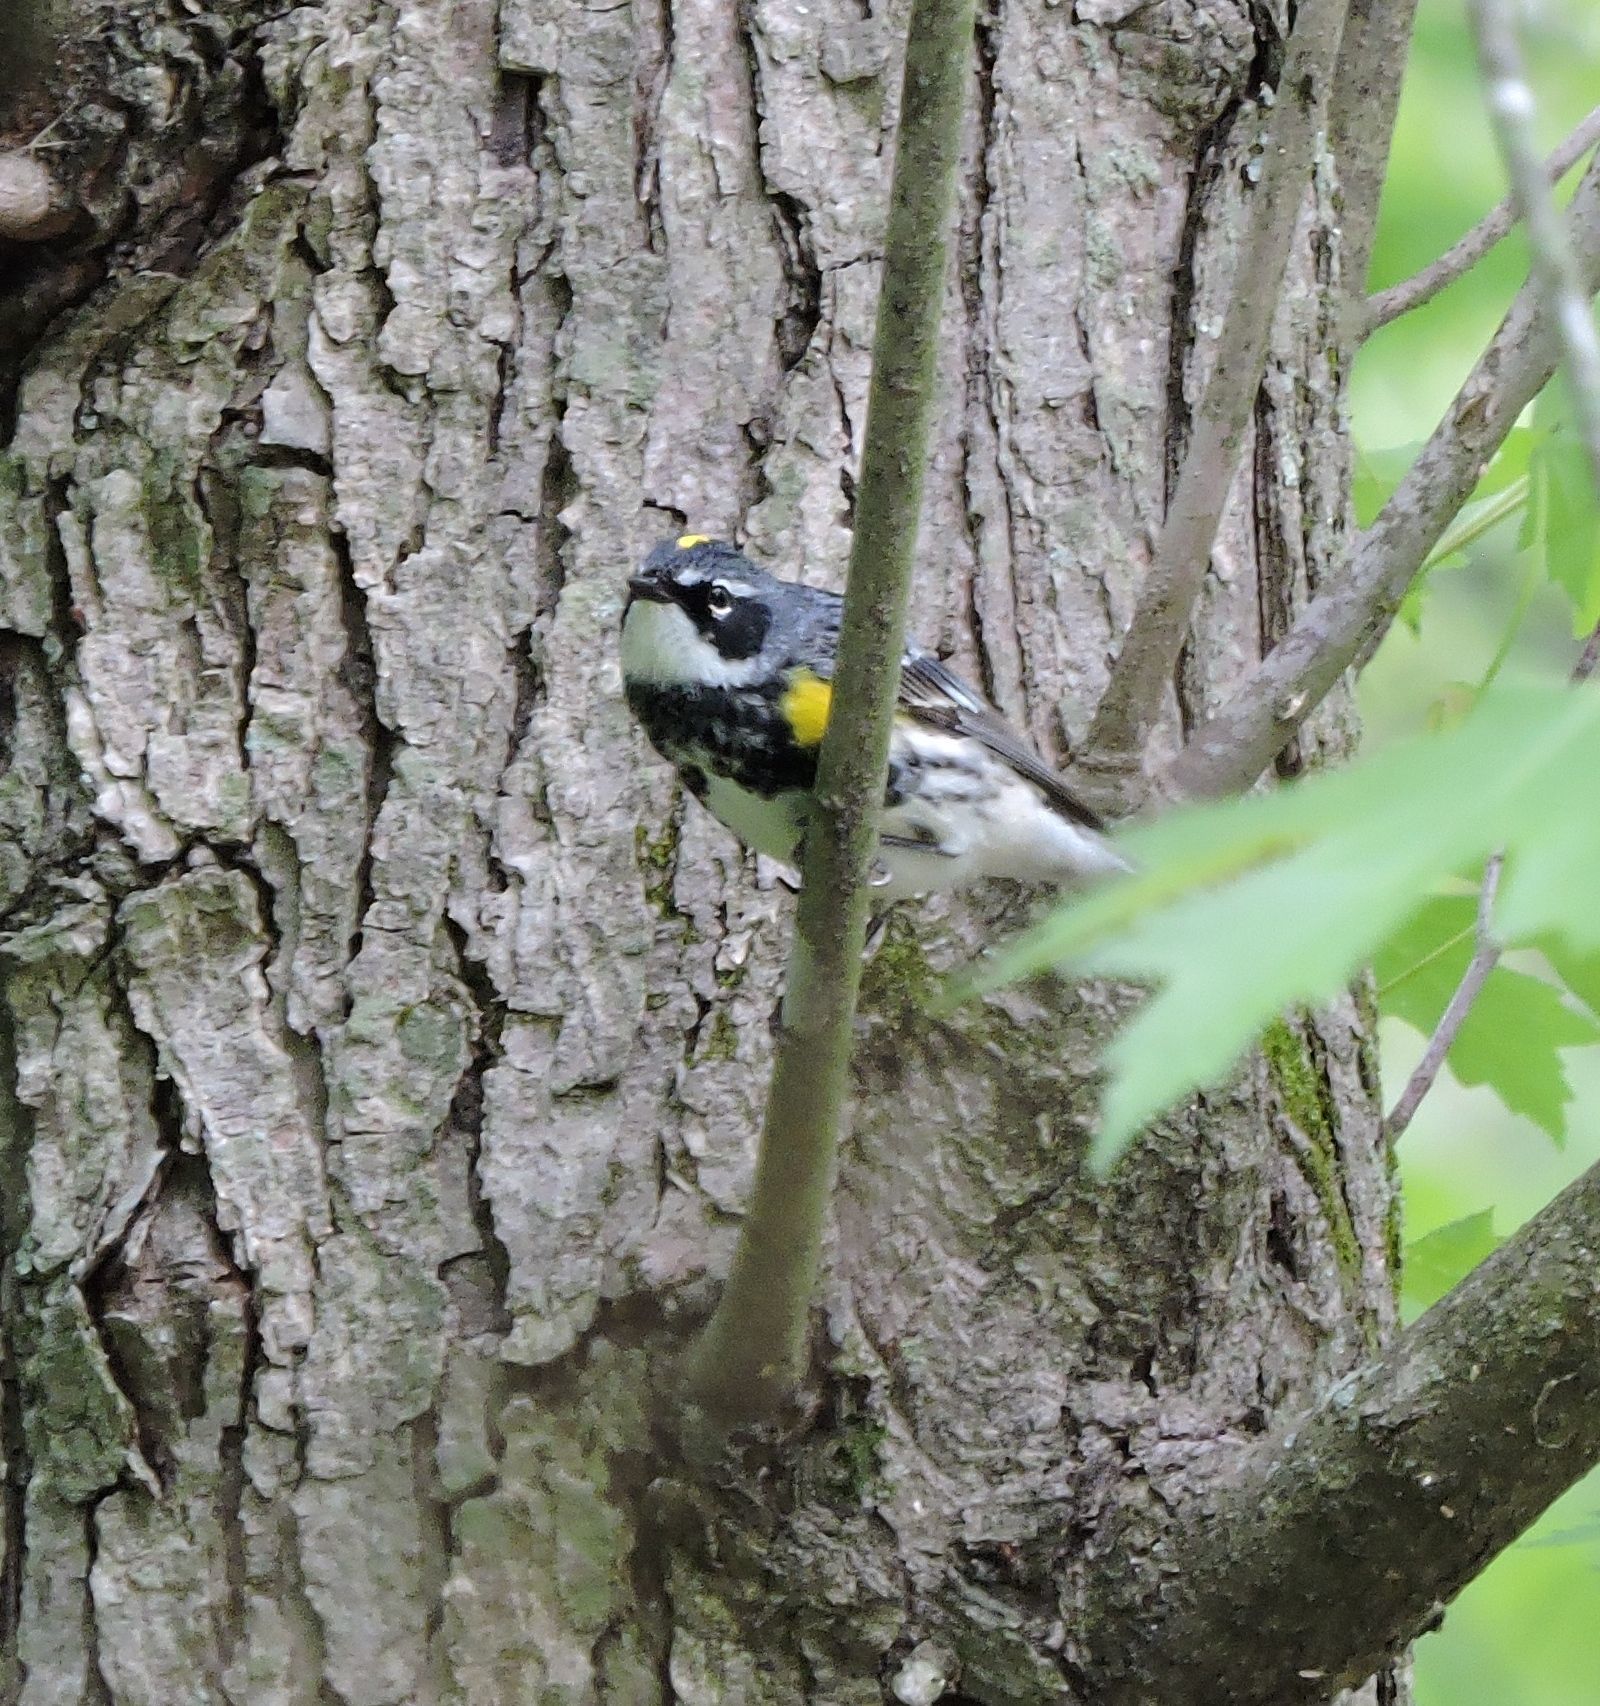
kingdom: Animalia
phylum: Chordata
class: Aves
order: Passeriformes
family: Parulidae
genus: Setophaga
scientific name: Setophaga coronata
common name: Myrtle warbler
